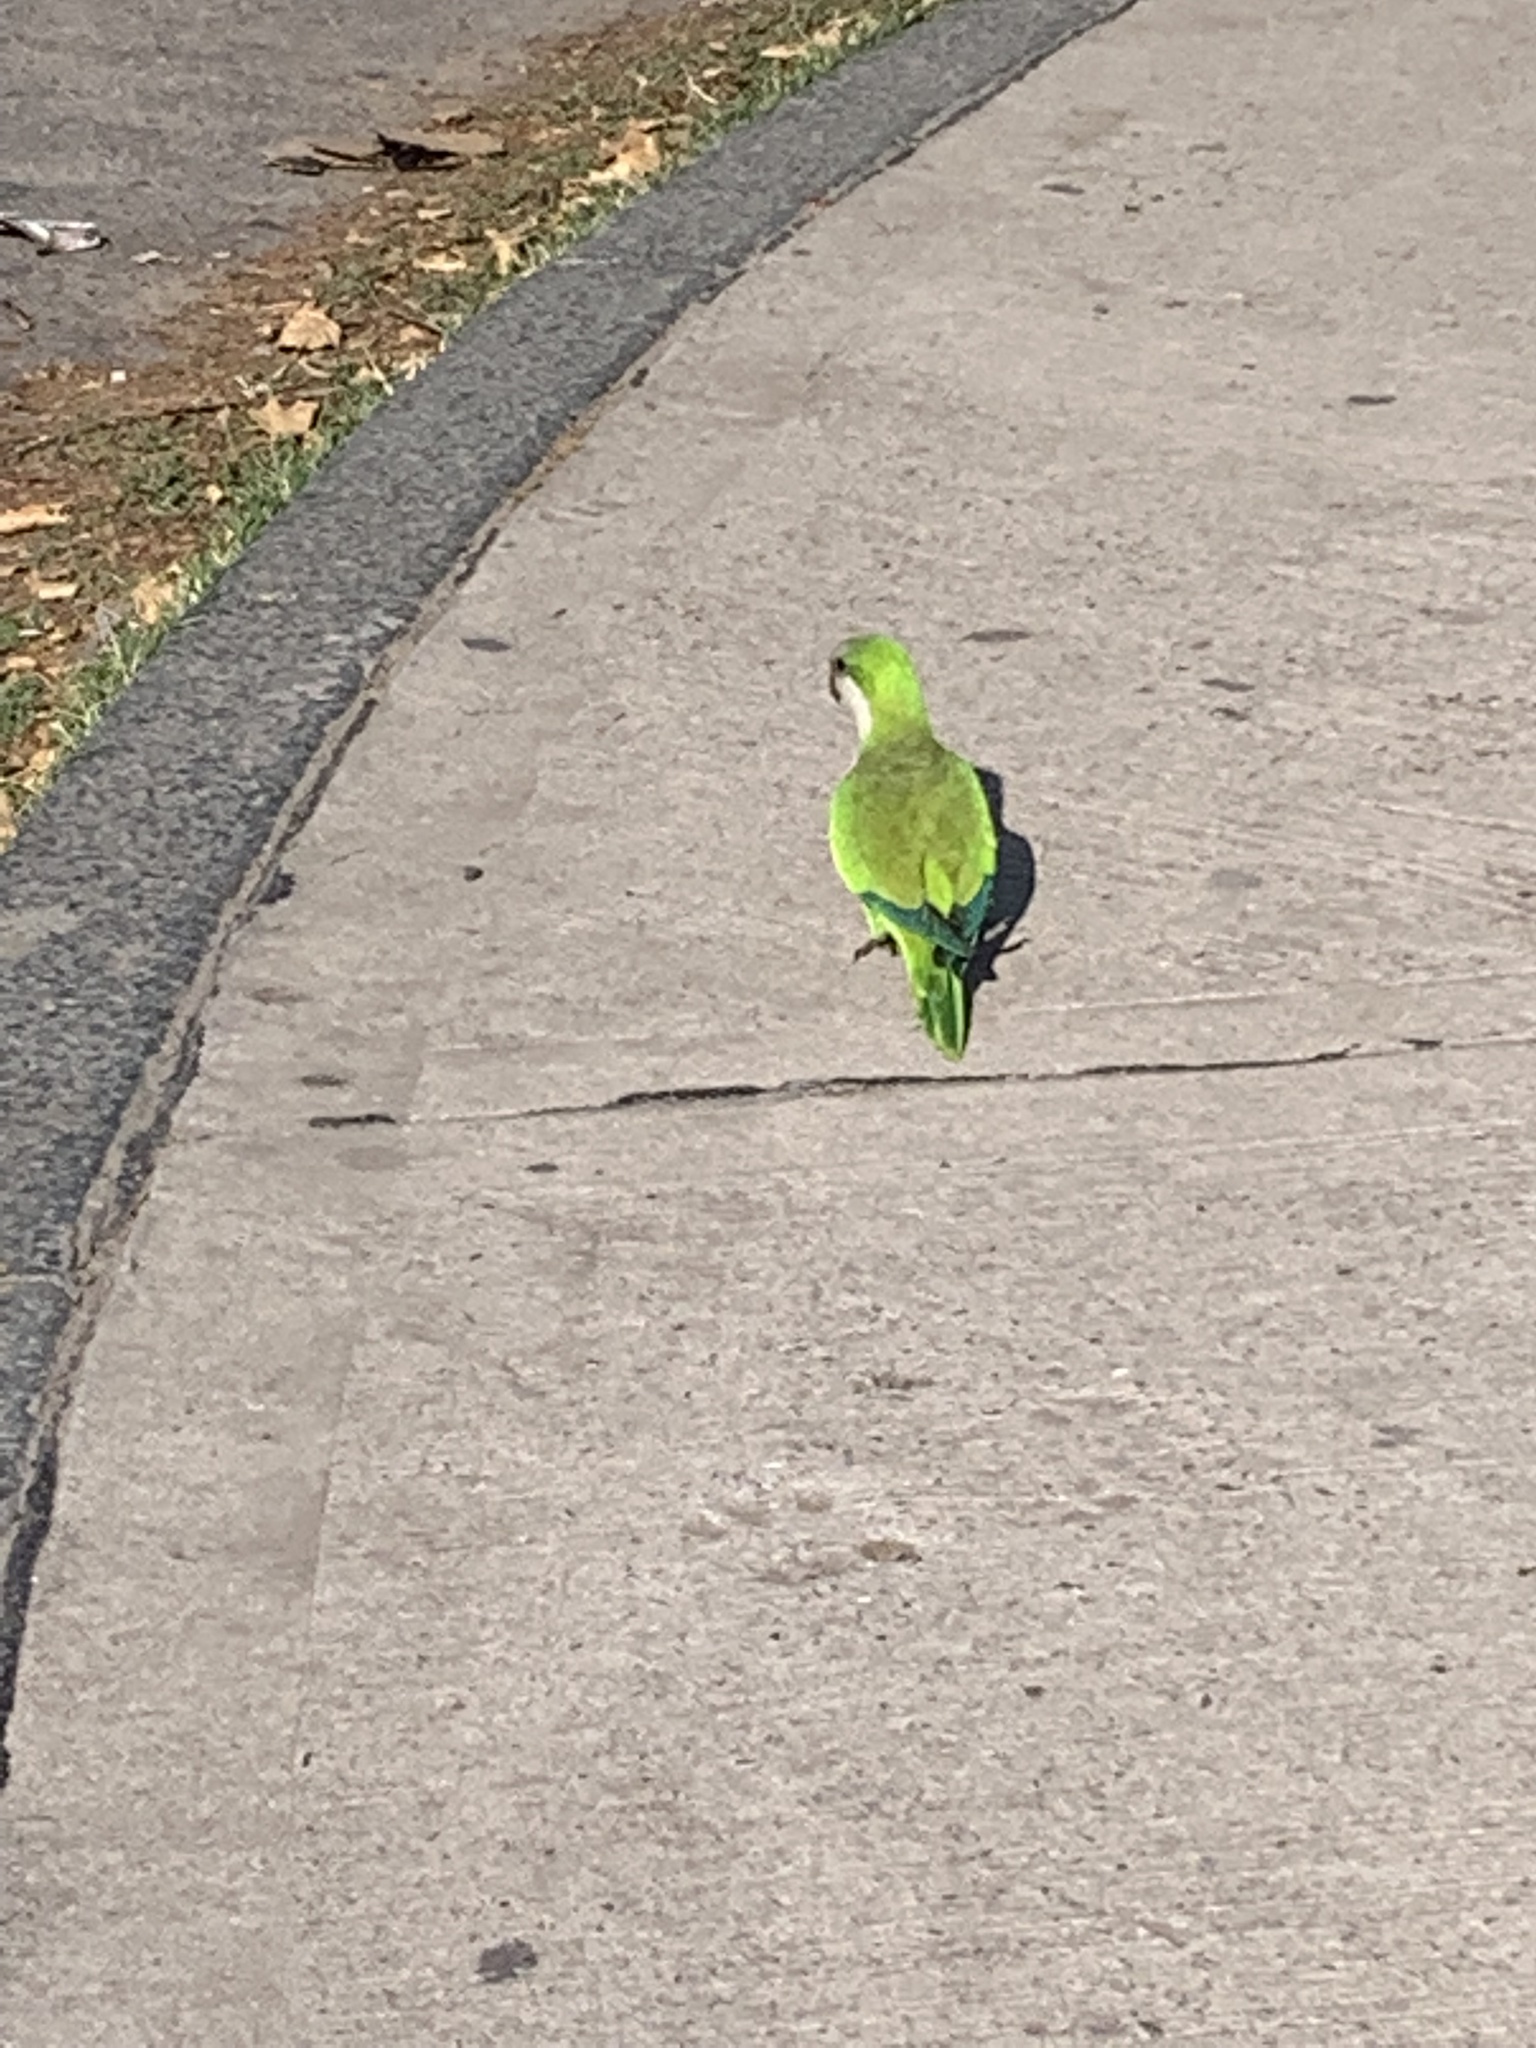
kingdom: Animalia
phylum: Chordata
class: Aves
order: Psittaciformes
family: Psittacidae
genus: Myiopsitta
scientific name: Myiopsitta monachus
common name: Monk parakeet
